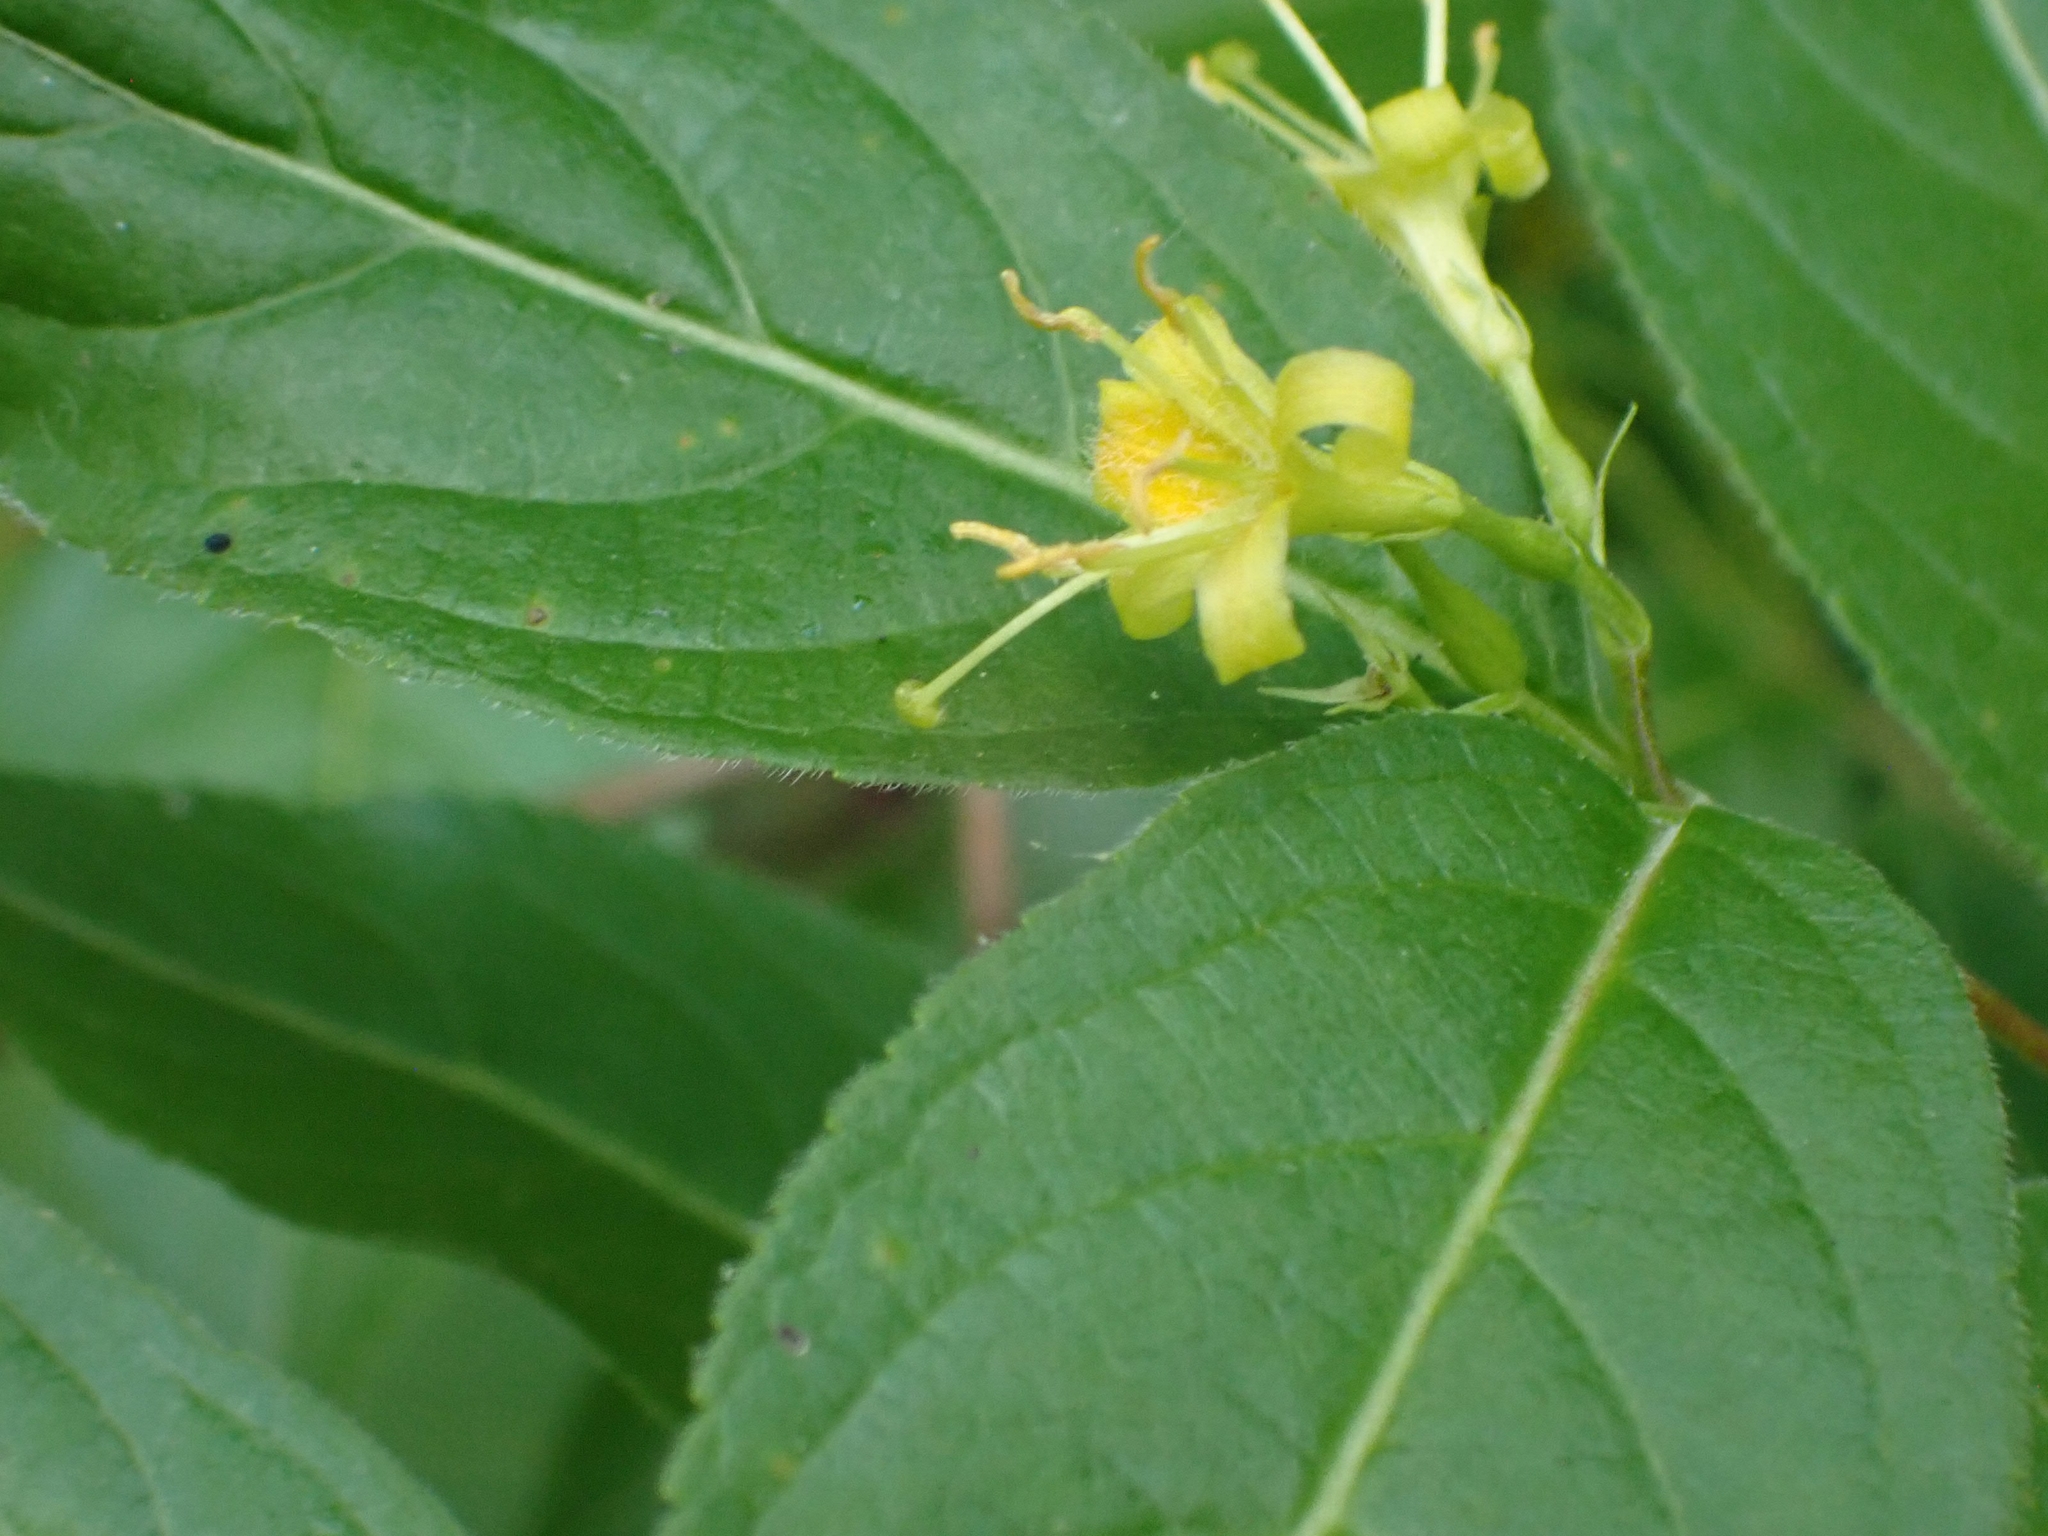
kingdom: Plantae
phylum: Tracheophyta
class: Magnoliopsida
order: Dipsacales
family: Caprifoliaceae
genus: Diervilla
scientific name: Diervilla lonicera
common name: Bush-honeysuckle
